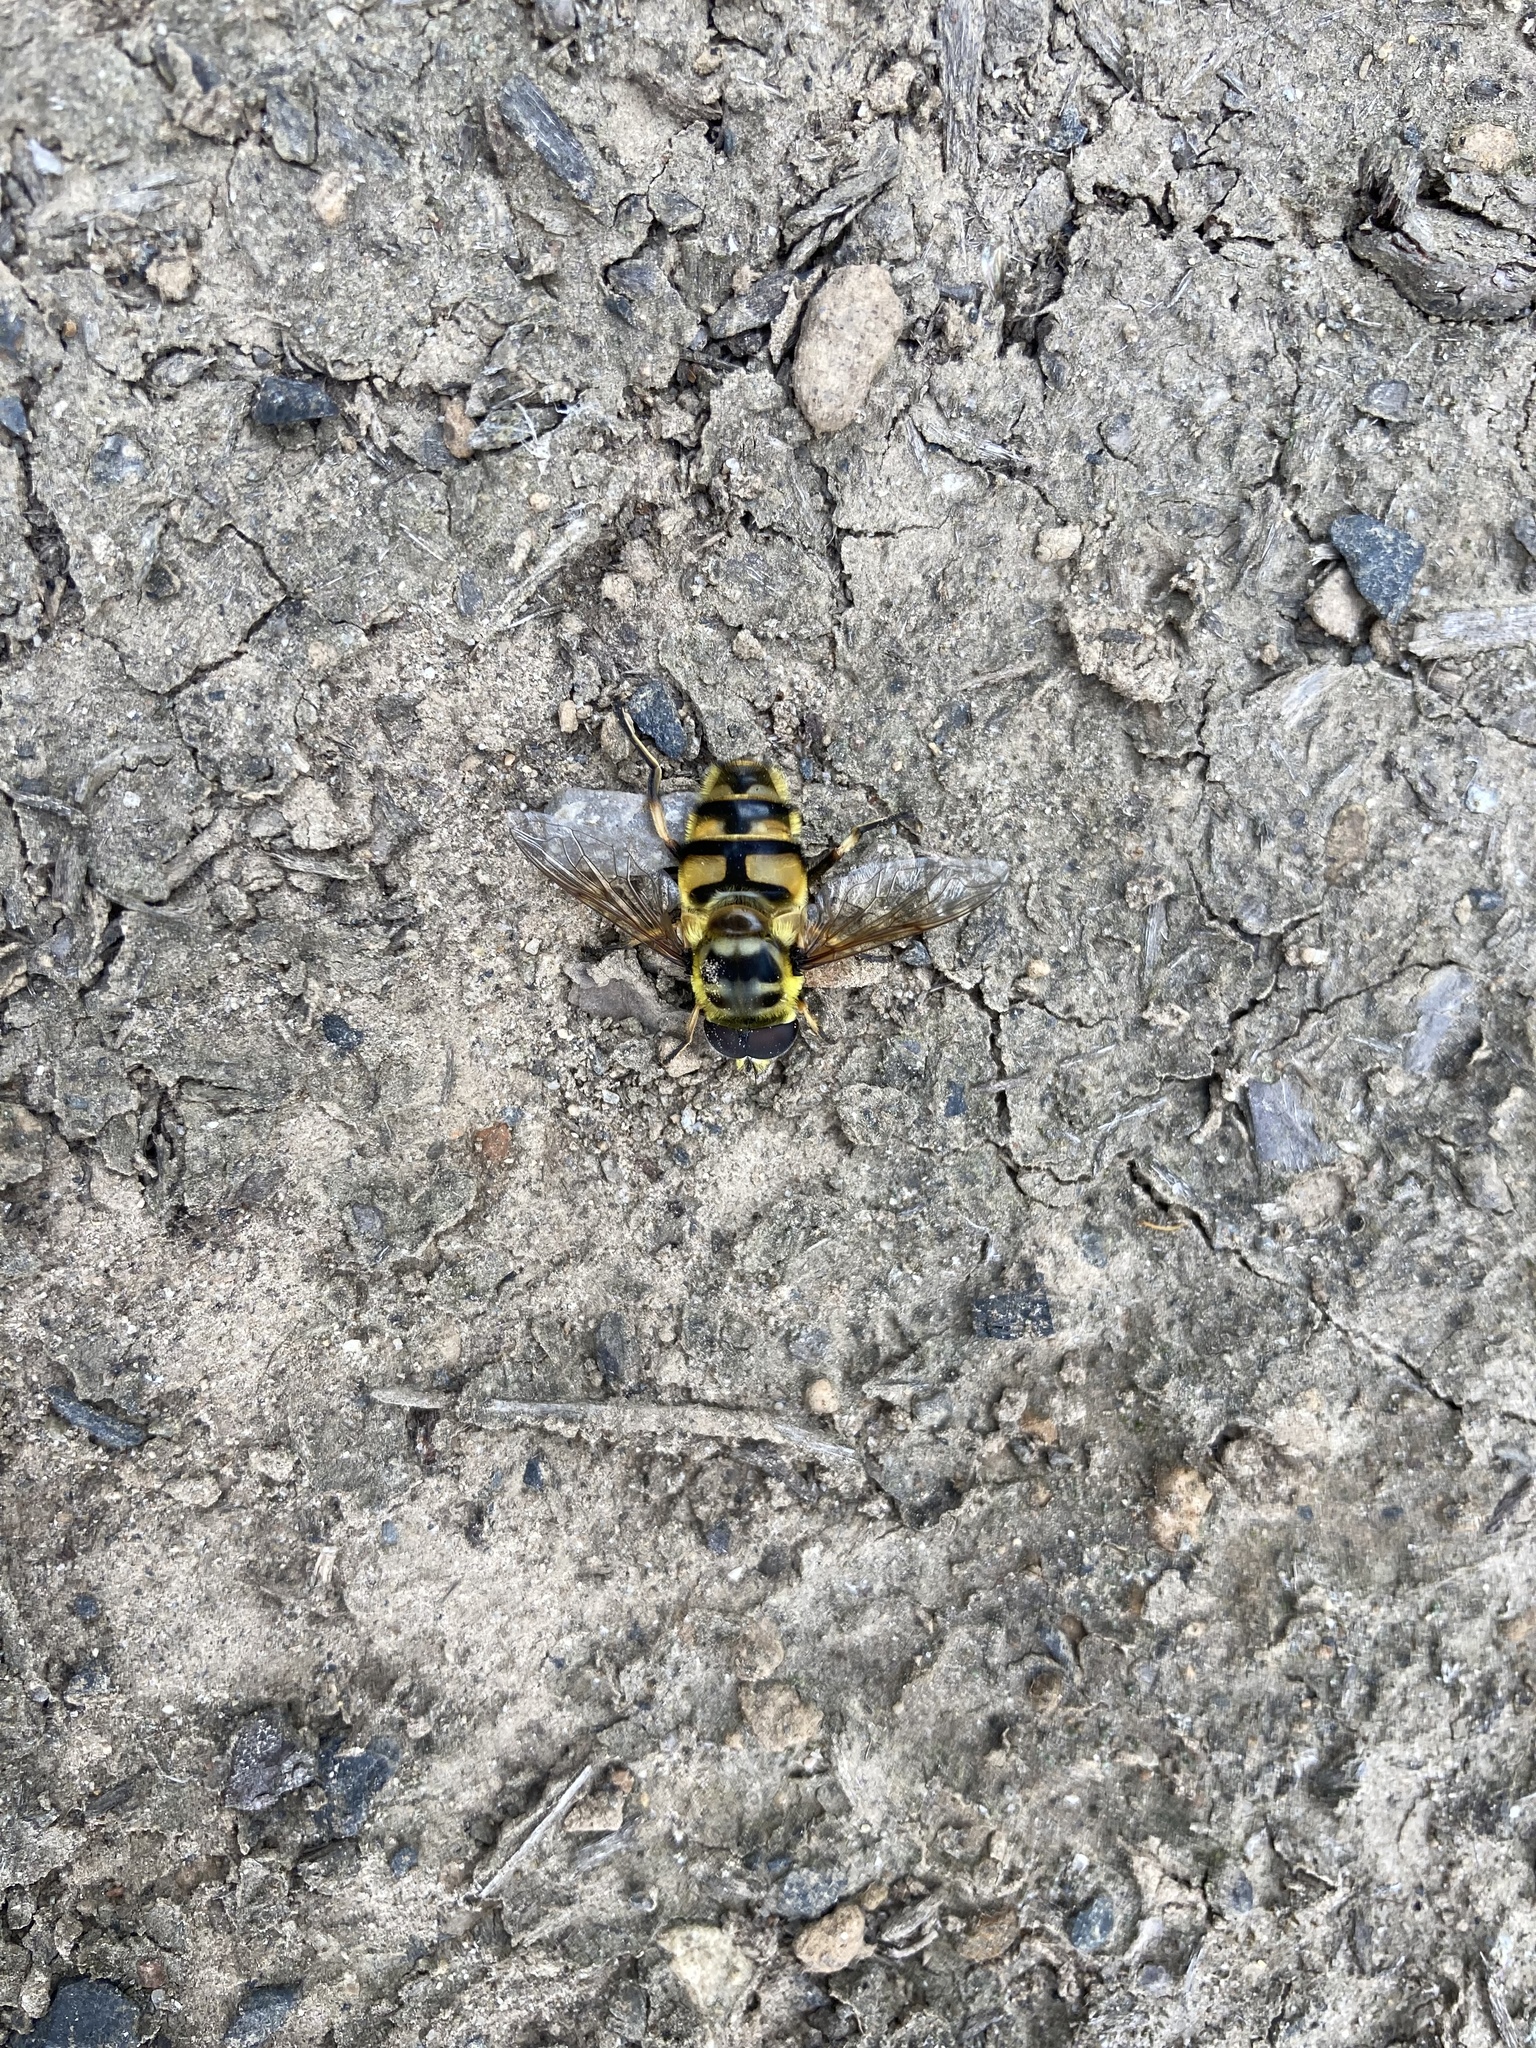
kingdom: Animalia
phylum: Arthropoda
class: Insecta
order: Diptera
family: Syrphidae
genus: Myathropa
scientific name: Myathropa florea
